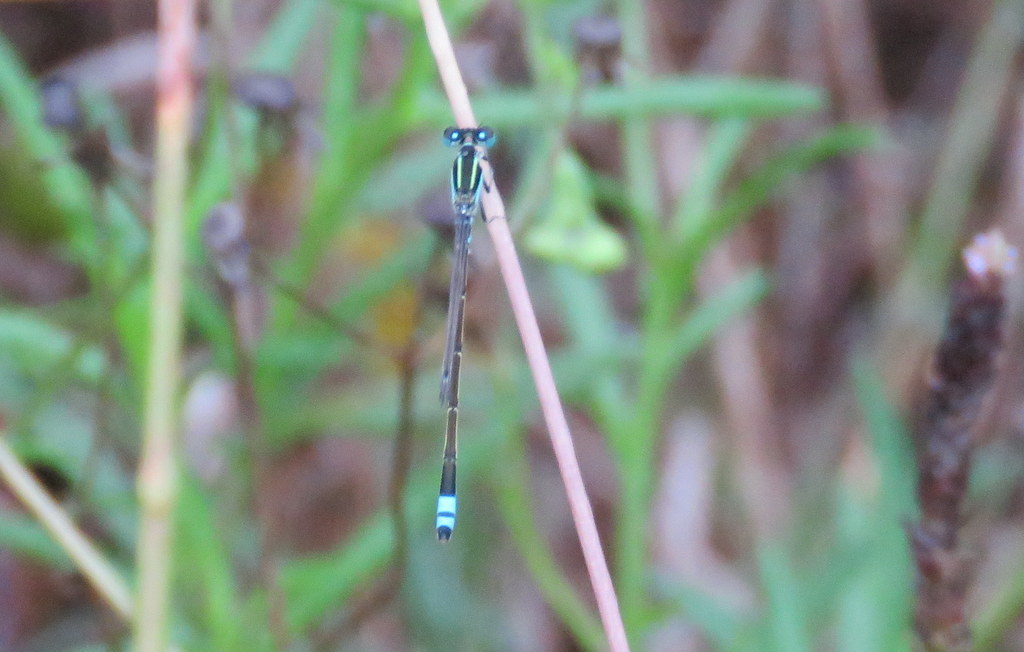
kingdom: Animalia
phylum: Arthropoda
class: Insecta
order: Odonata
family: Coenagrionidae
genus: Ischnura
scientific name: Ischnura fluviatilis
